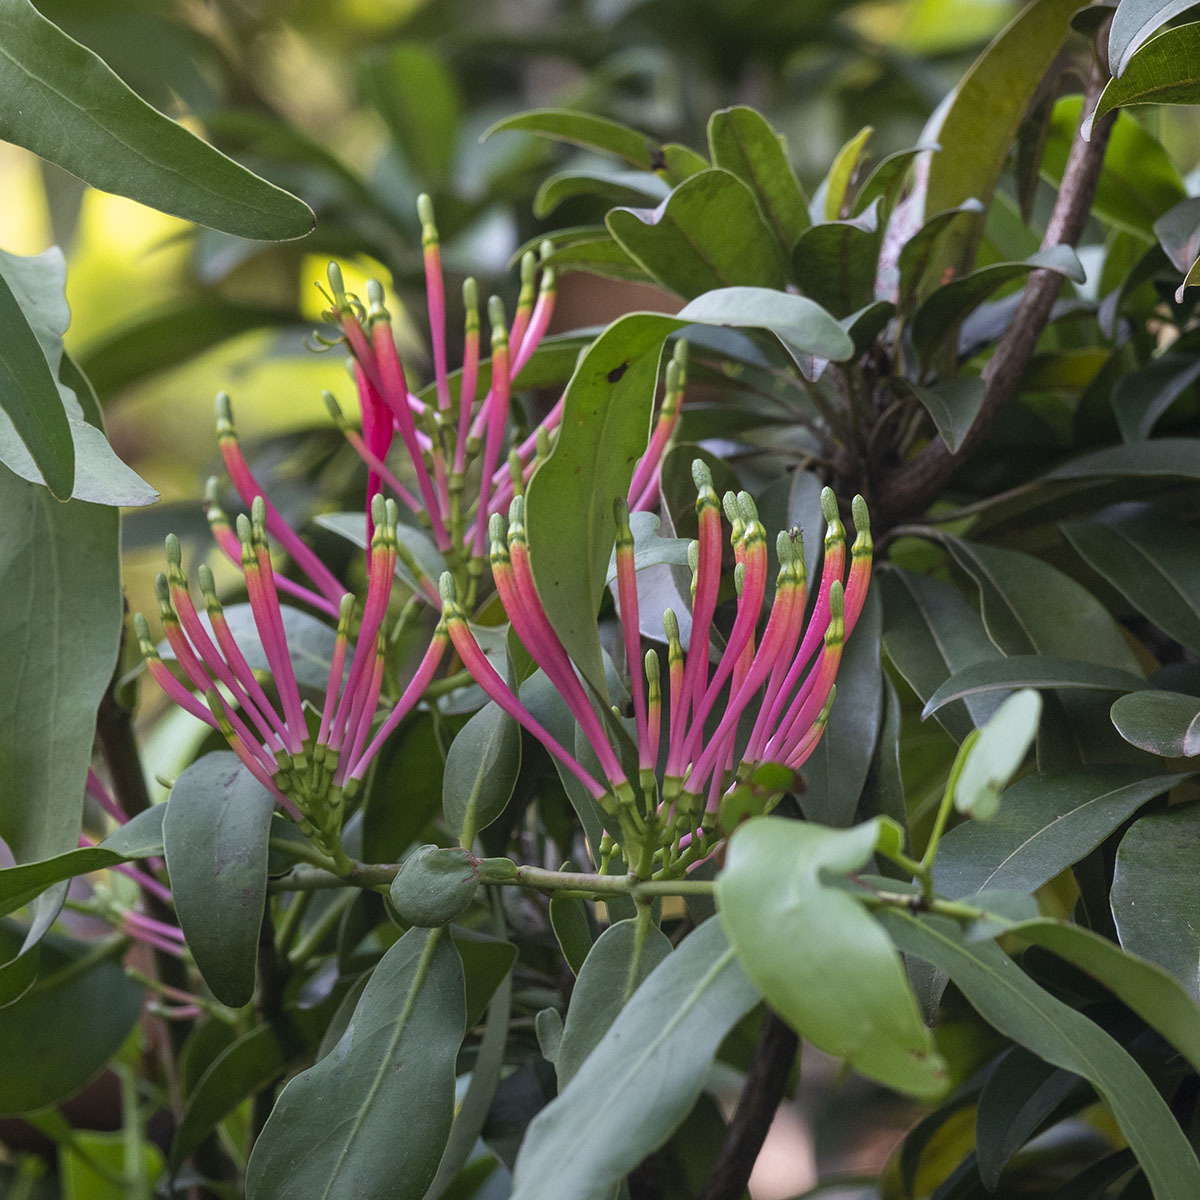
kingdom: Plantae
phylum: Tracheophyta
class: Magnoliopsida
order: Santalales
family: Loranthaceae
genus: Dendrophthoe
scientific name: Dendrophthoe falcata
